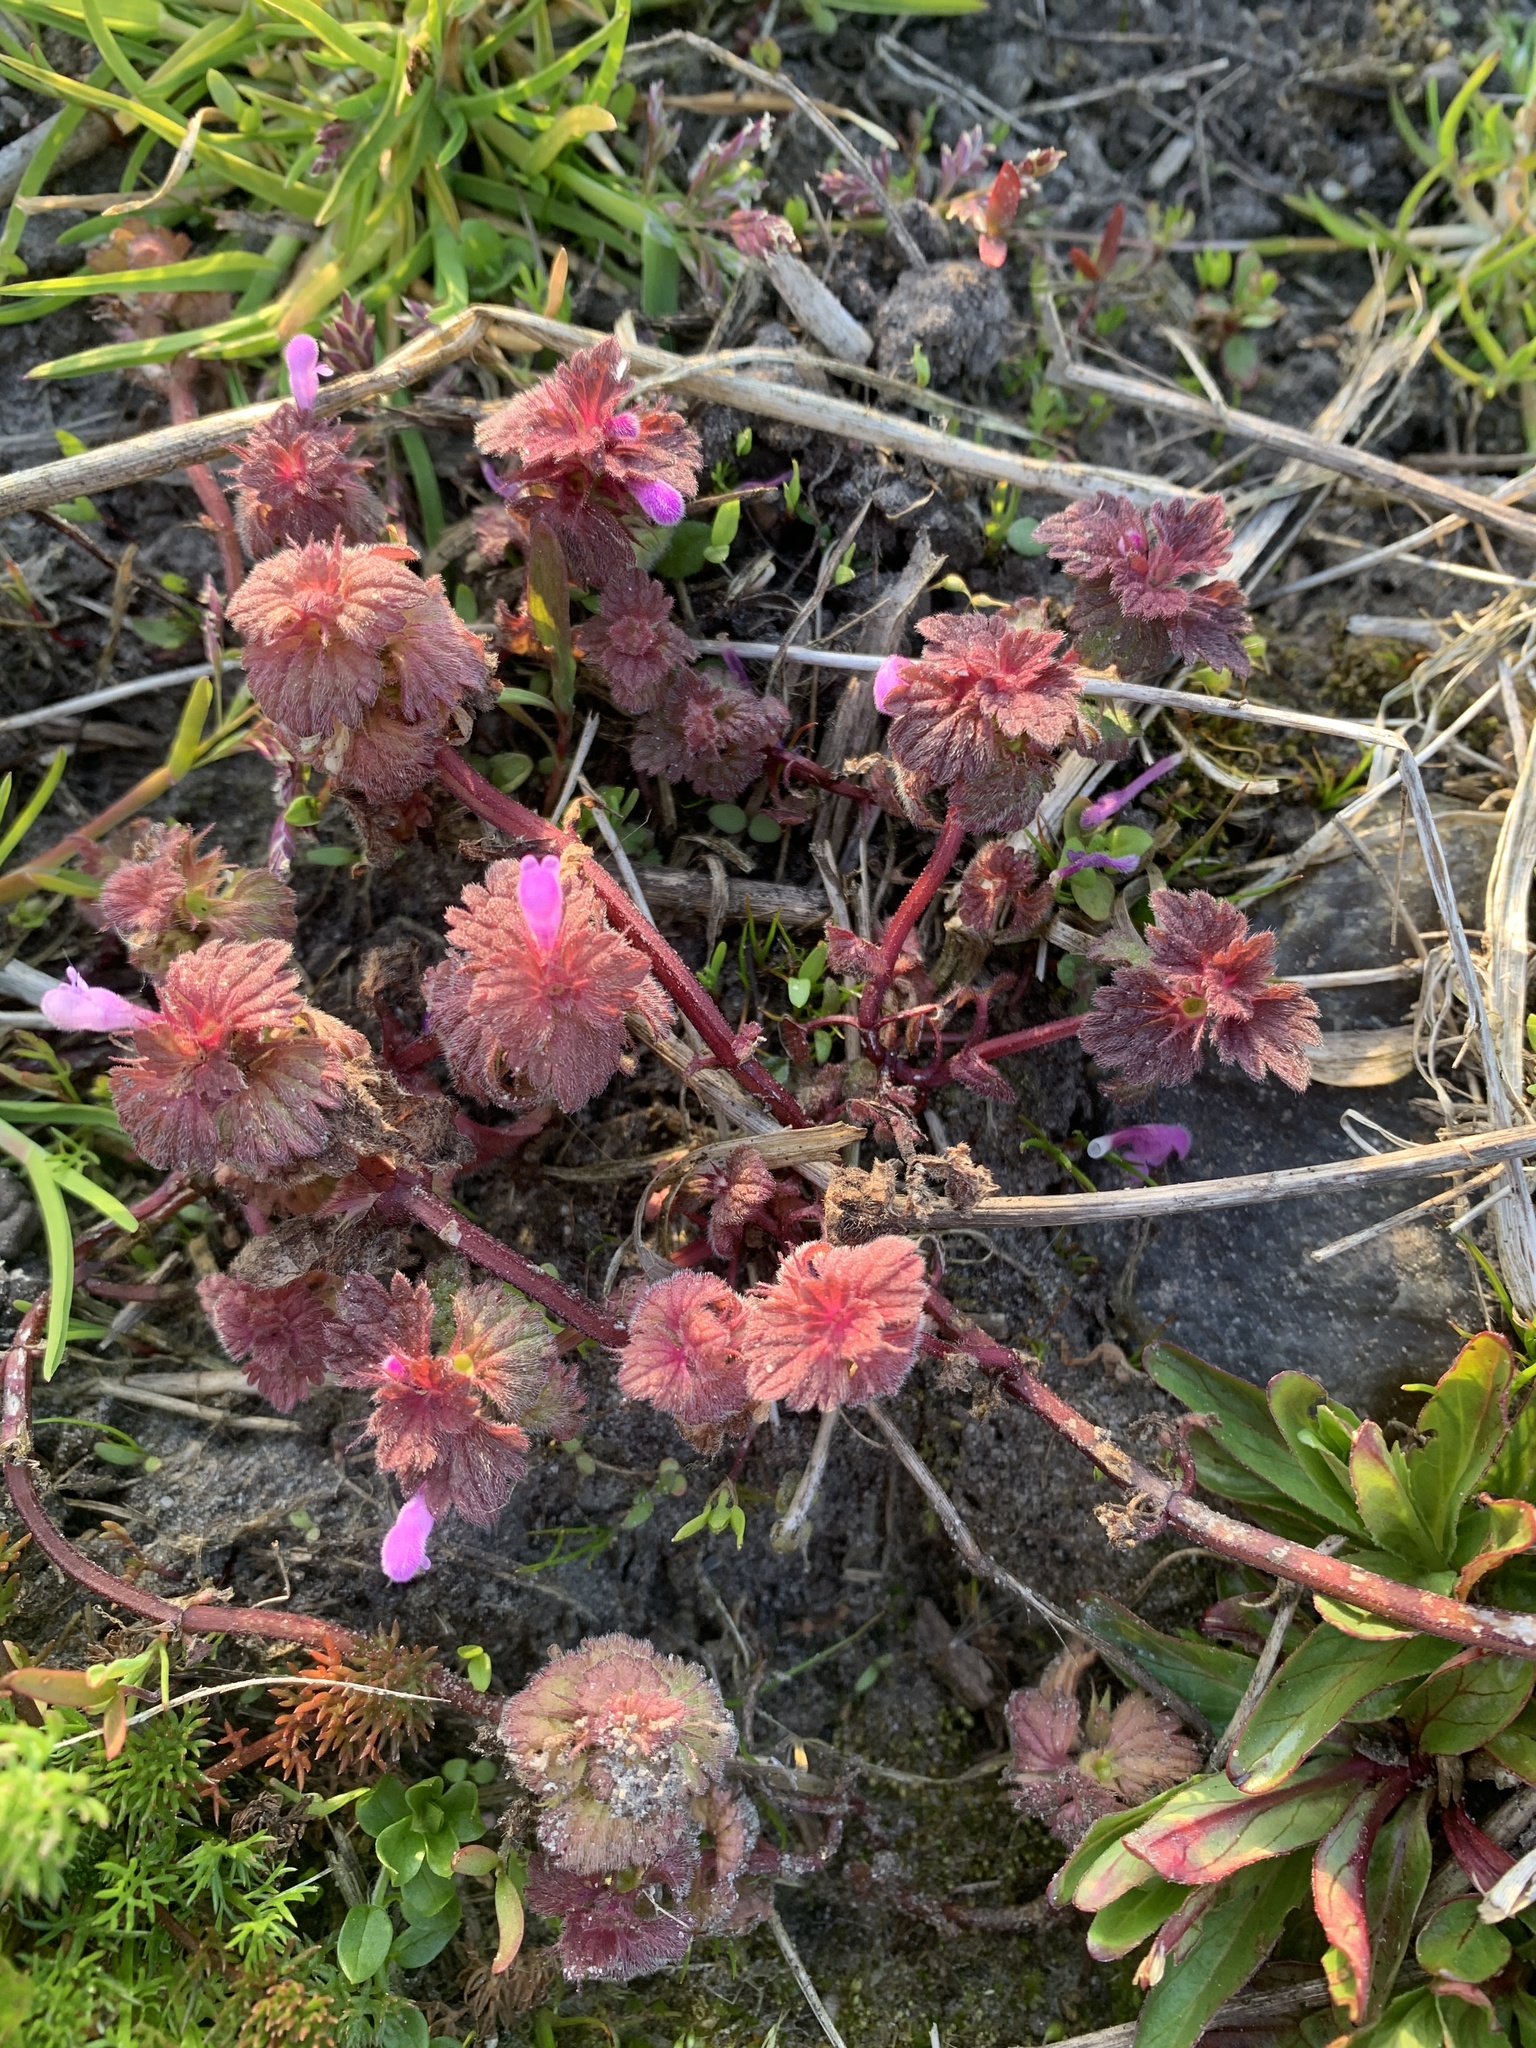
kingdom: Plantae
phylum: Tracheophyta
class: Magnoliopsida
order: Lamiales
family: Lamiaceae
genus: Lamium
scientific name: Lamium purpureum
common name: Red dead-nettle
